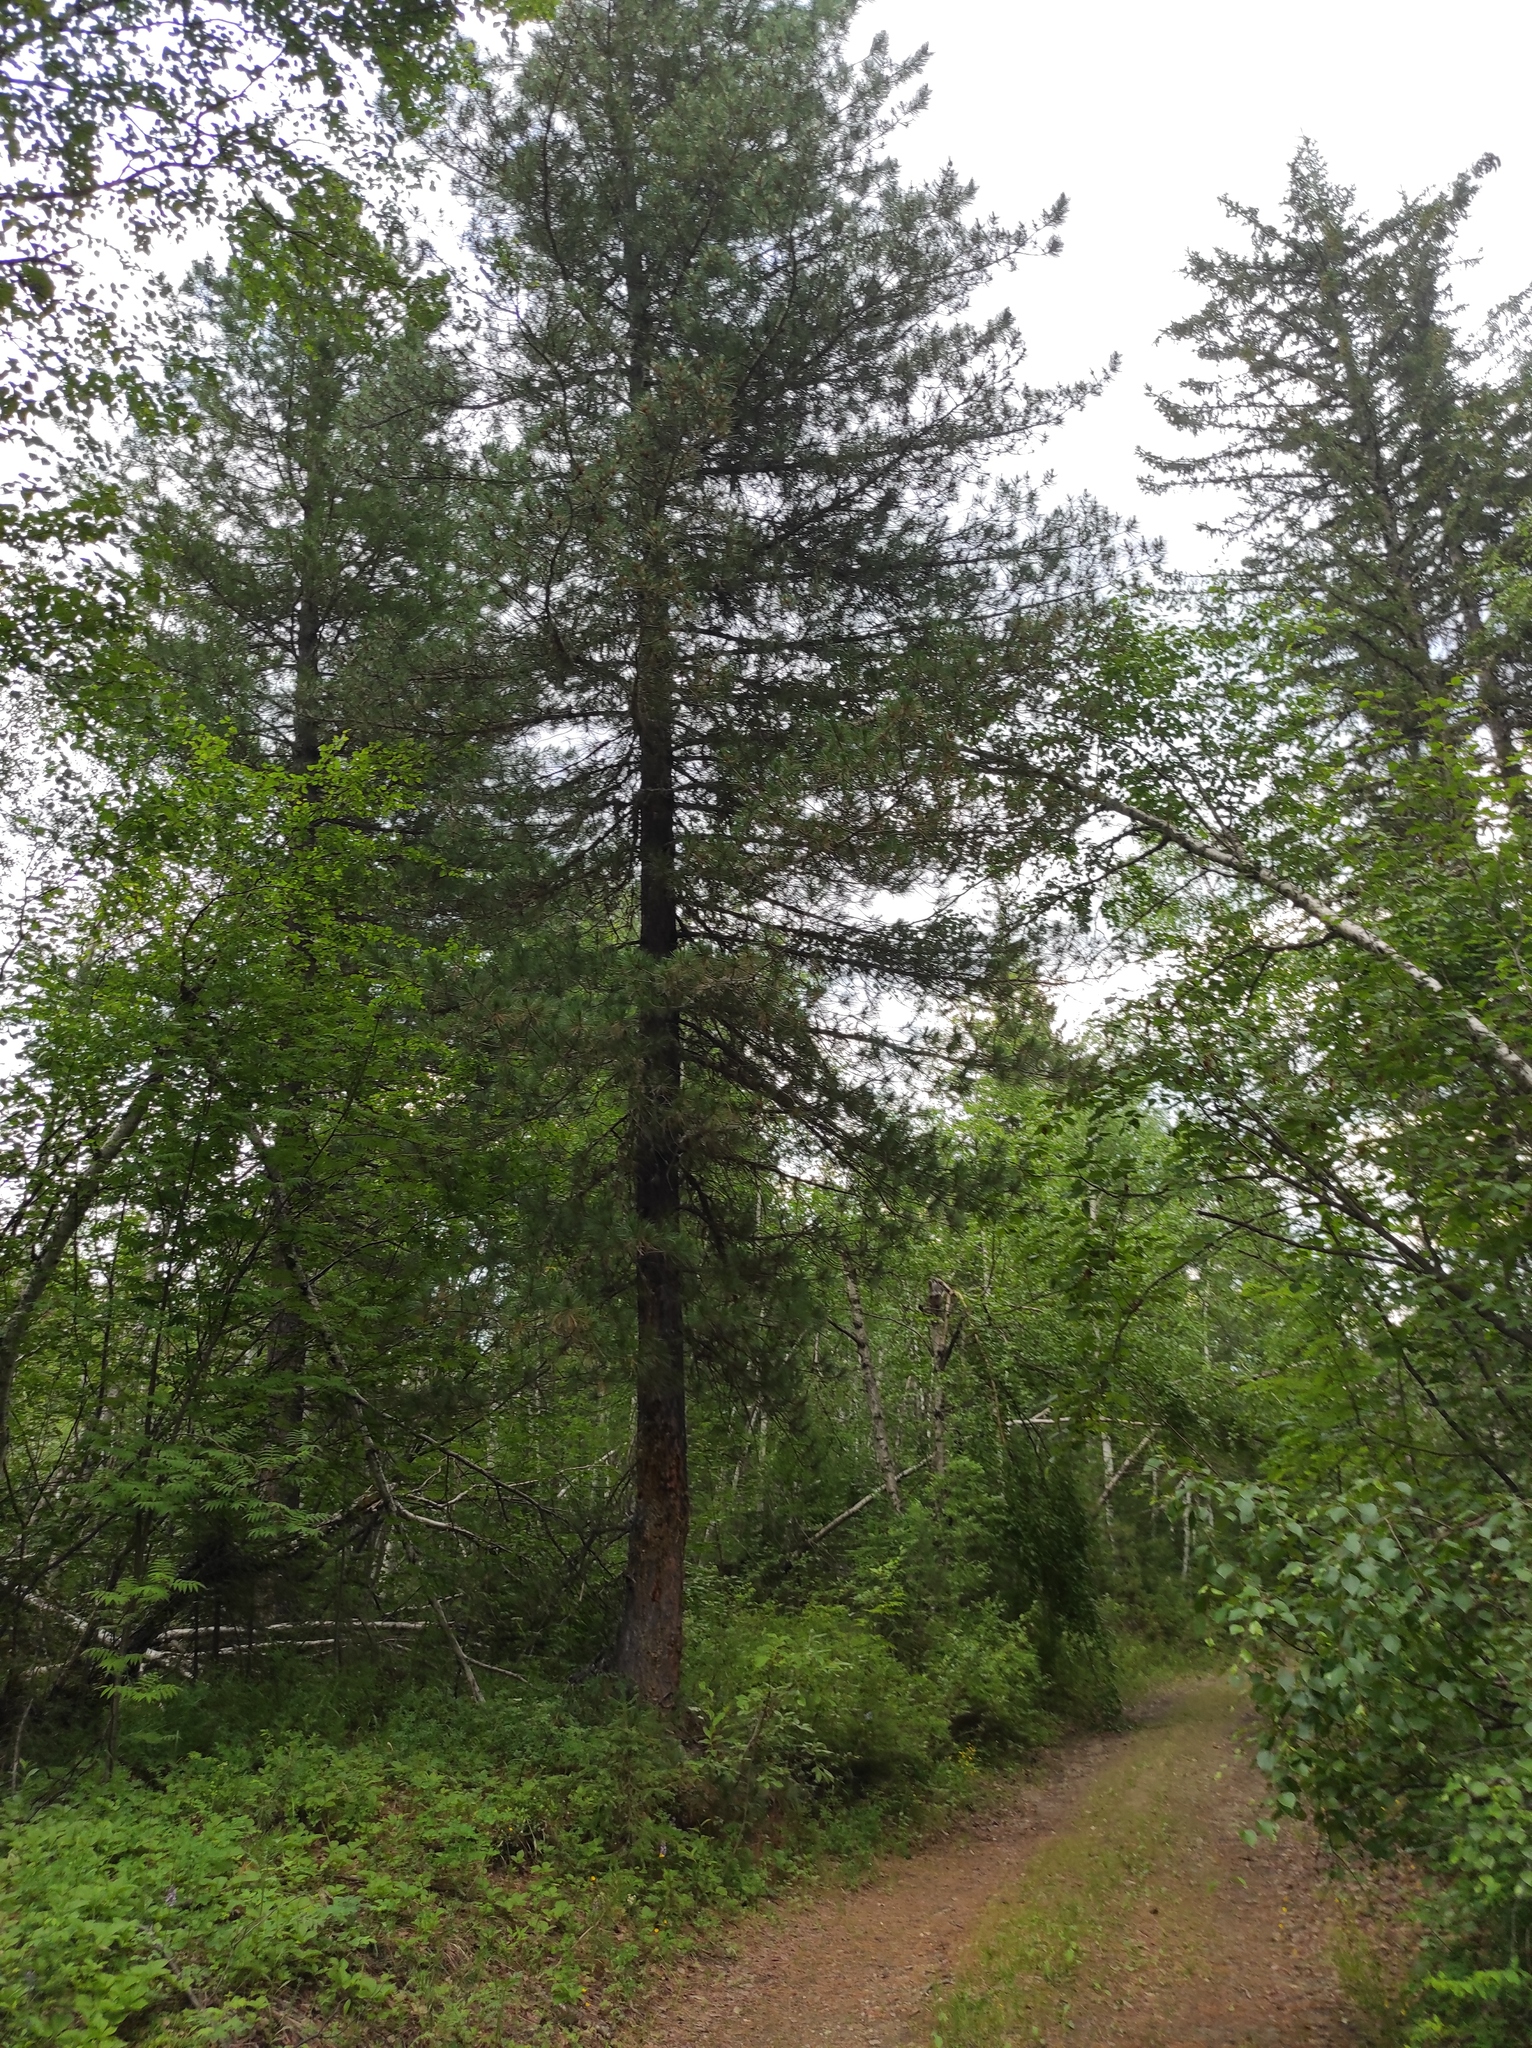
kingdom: Plantae
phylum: Tracheophyta
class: Pinopsida
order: Pinales
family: Pinaceae
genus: Pinus
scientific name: Pinus sibirica
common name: Siberian pine
